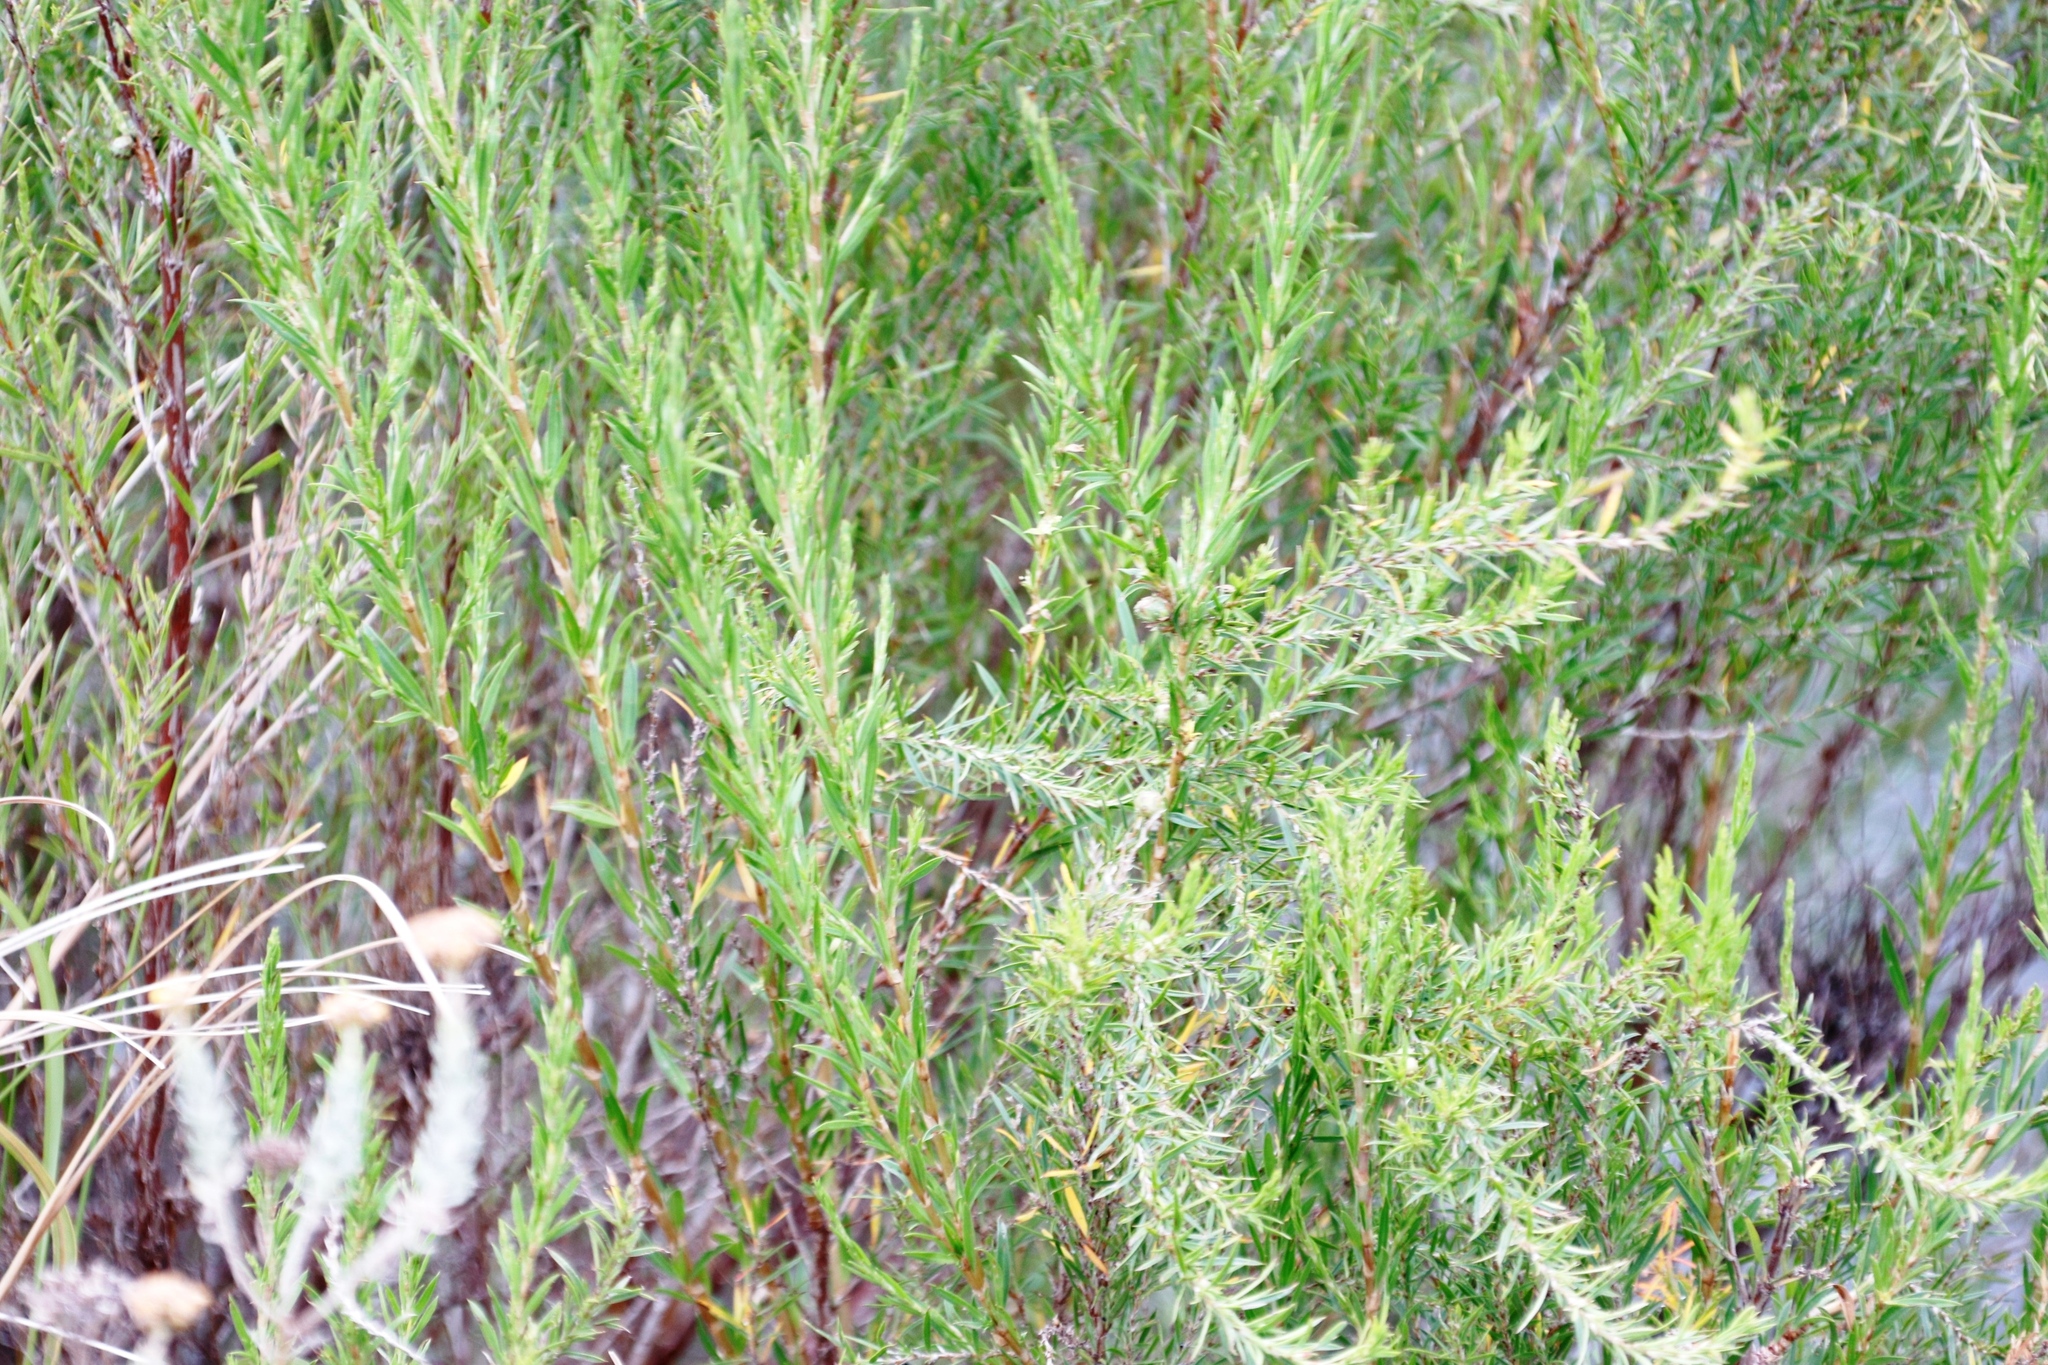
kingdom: Plantae
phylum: Tracheophyta
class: Magnoliopsida
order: Rosales
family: Rosaceae
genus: Cliffortia
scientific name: Cliffortia strobilifera
